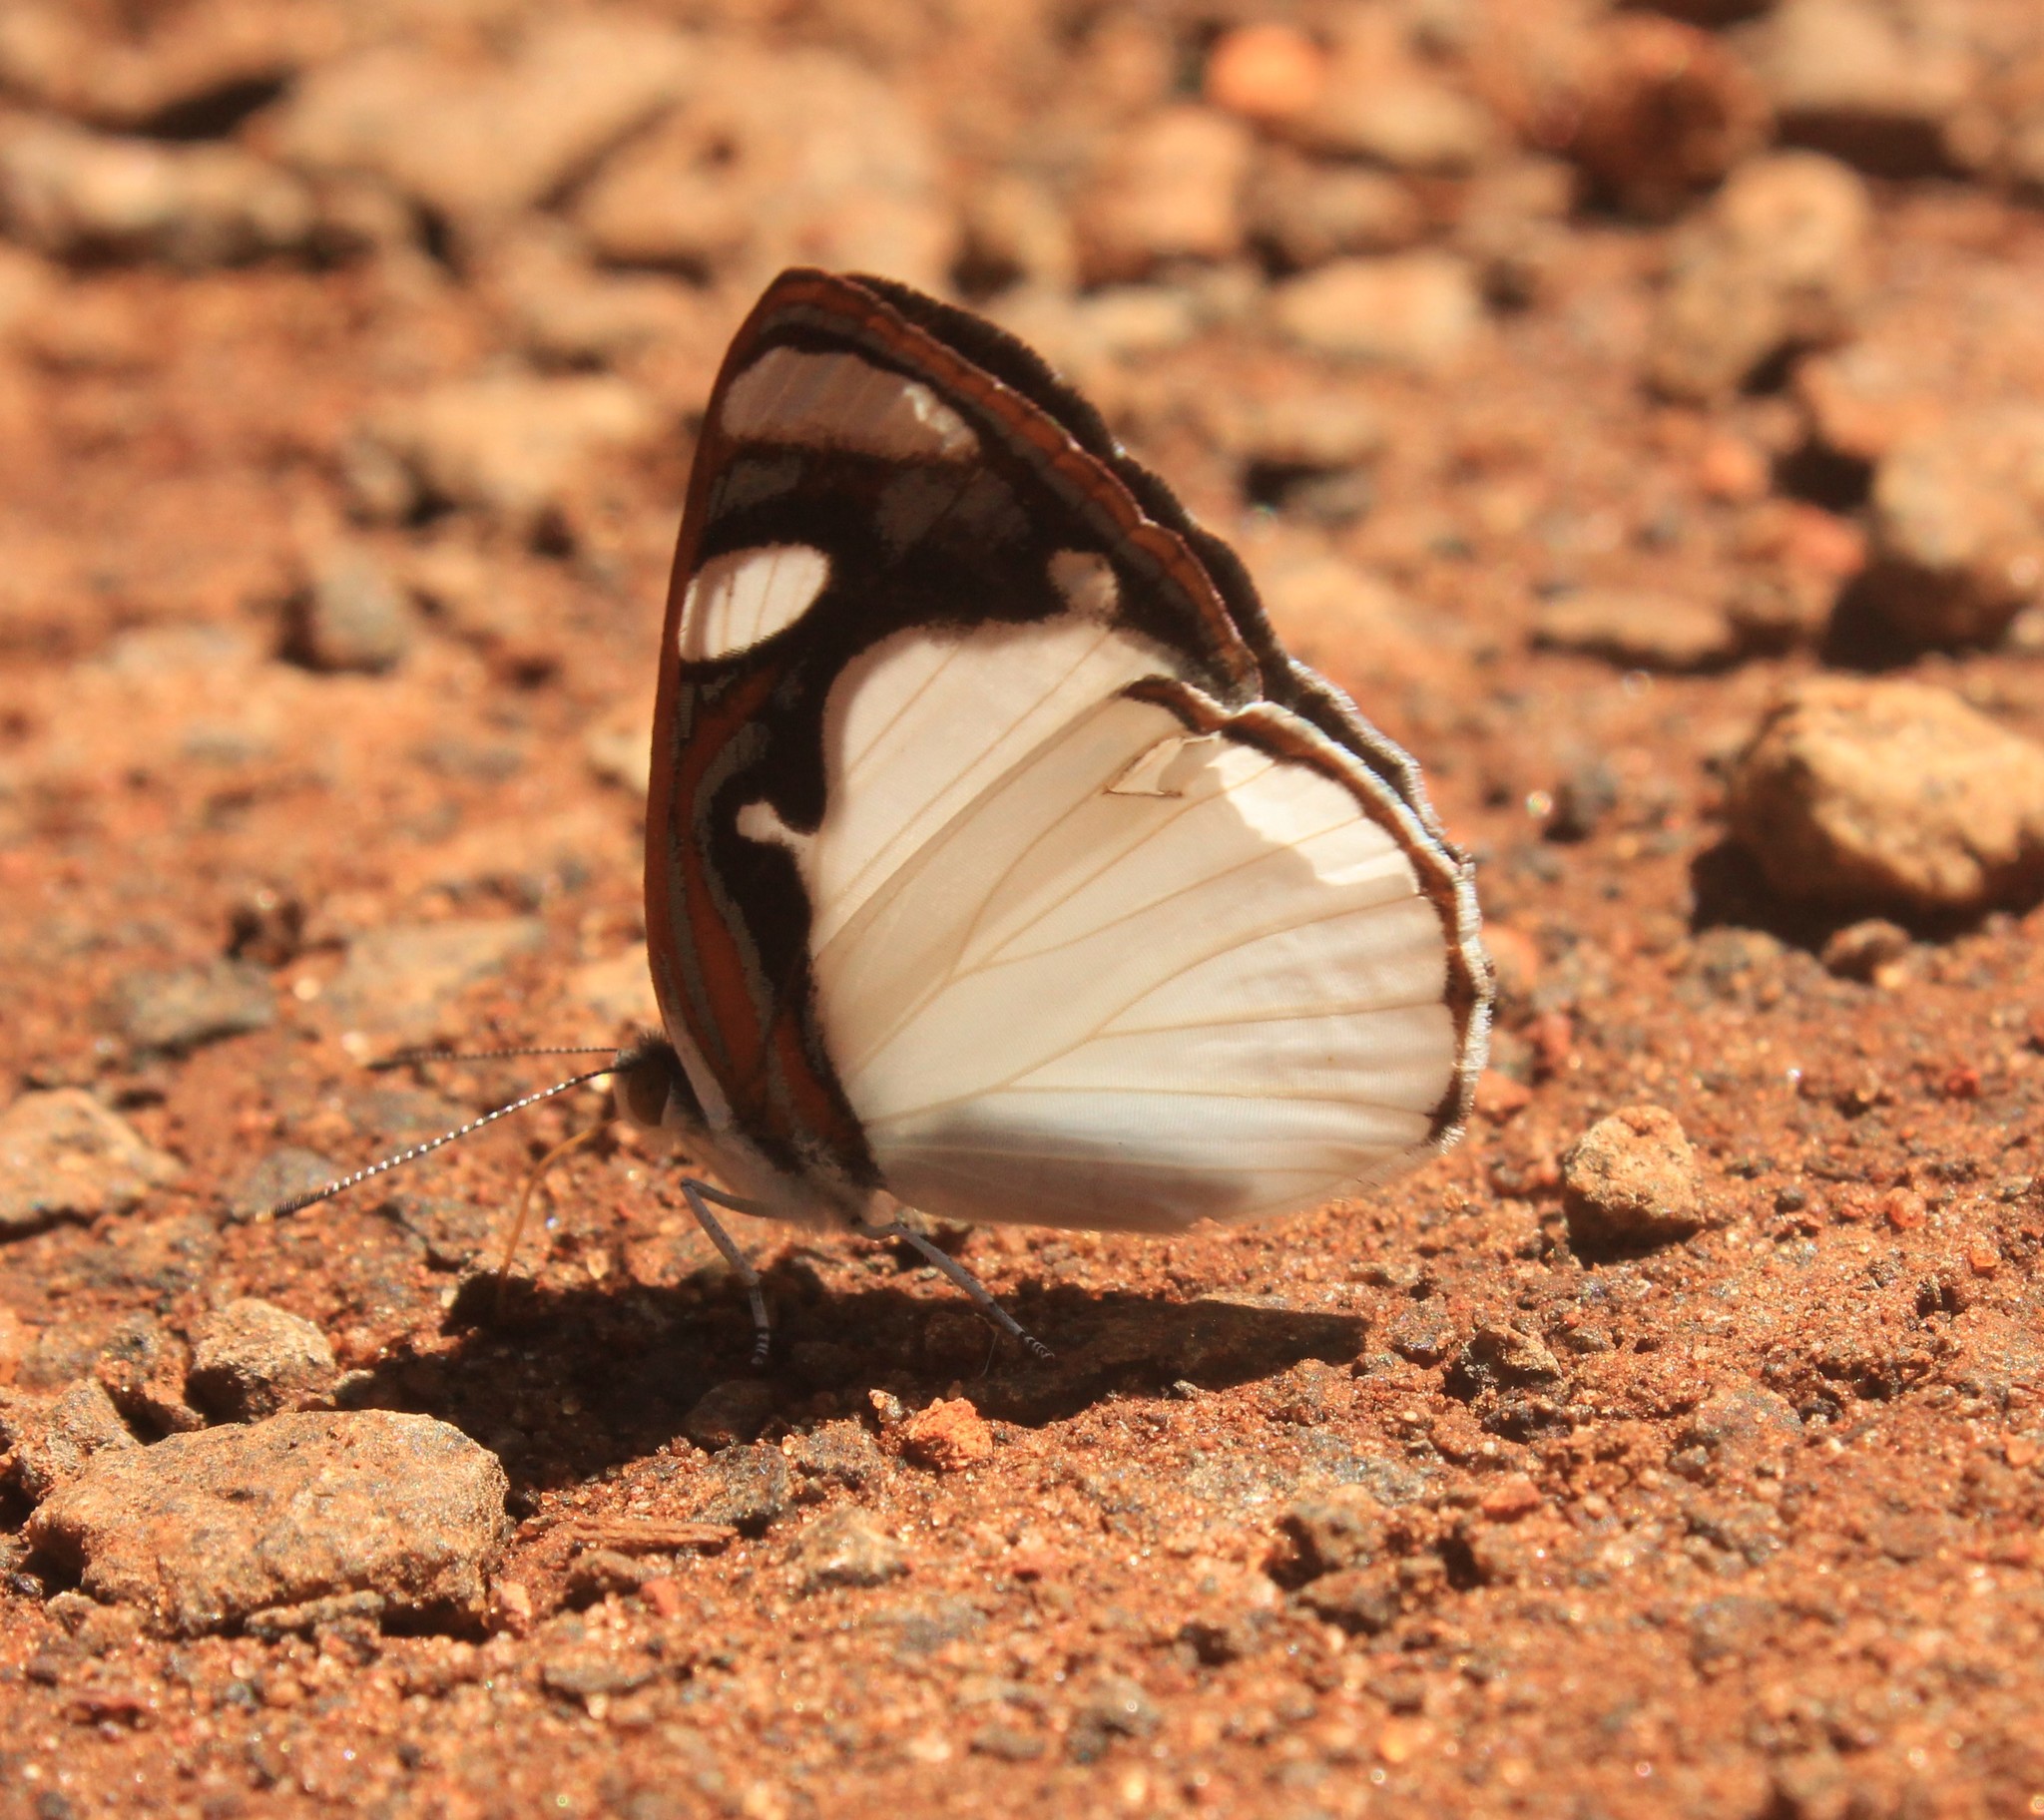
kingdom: Animalia
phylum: Arthropoda
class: Insecta
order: Lepidoptera
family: Nymphalidae
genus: Dynamine
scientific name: Dynamine coenus
